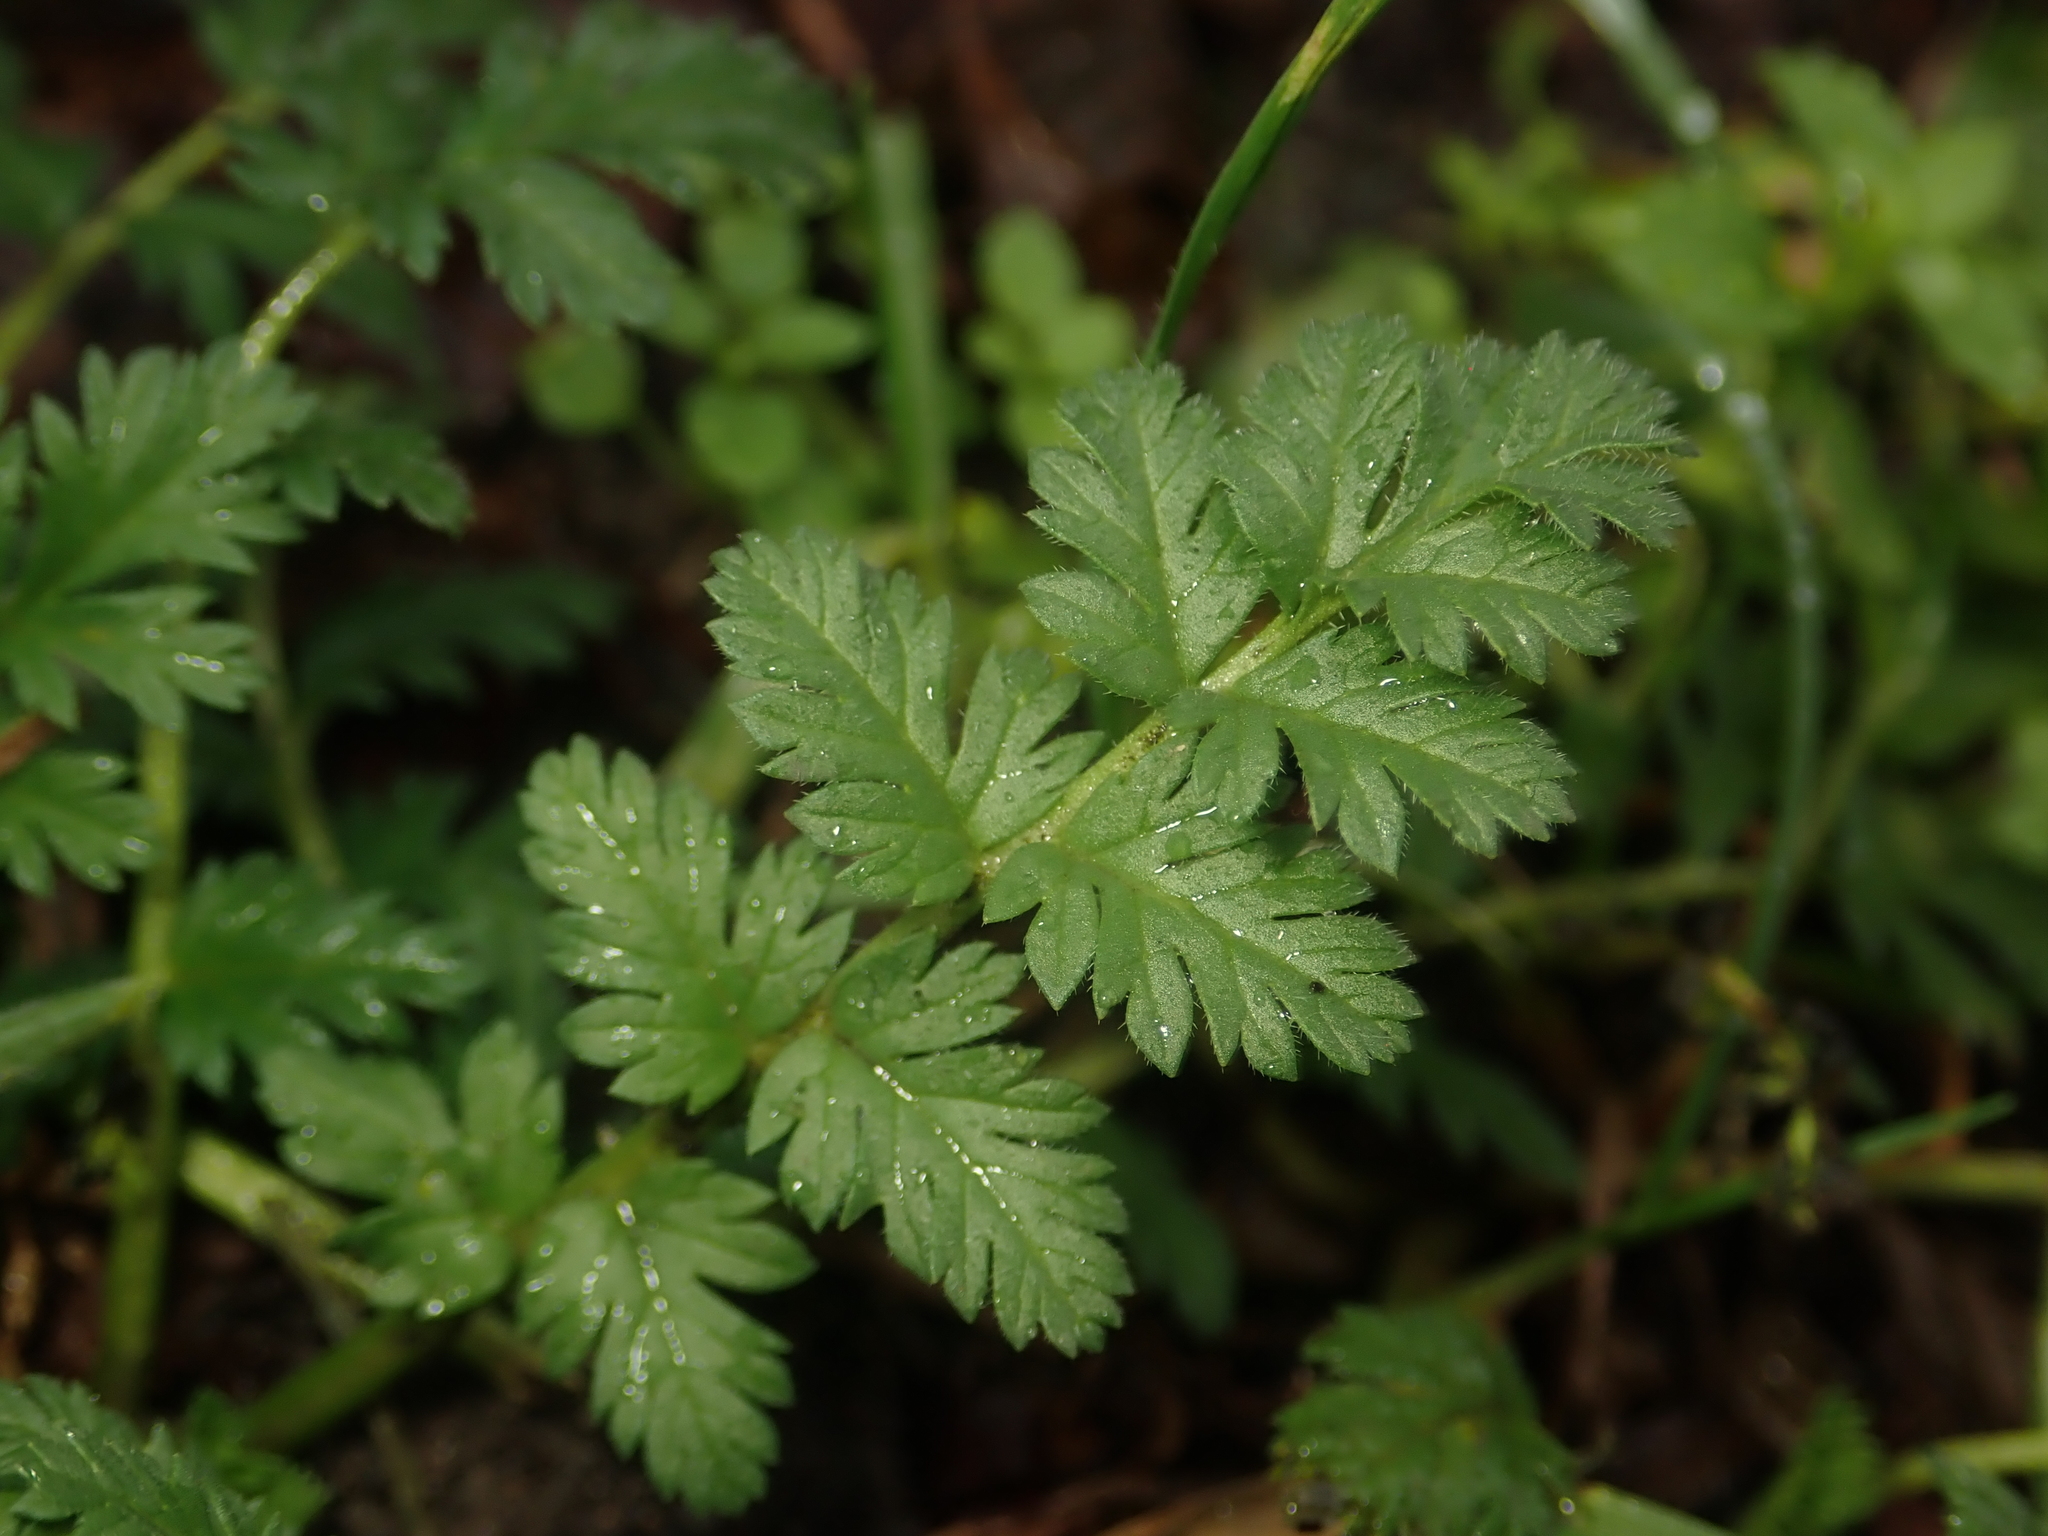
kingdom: Plantae
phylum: Tracheophyta
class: Magnoliopsida
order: Geraniales
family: Geraniaceae
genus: Erodium
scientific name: Erodium cicutarium
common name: Common stork's-bill
